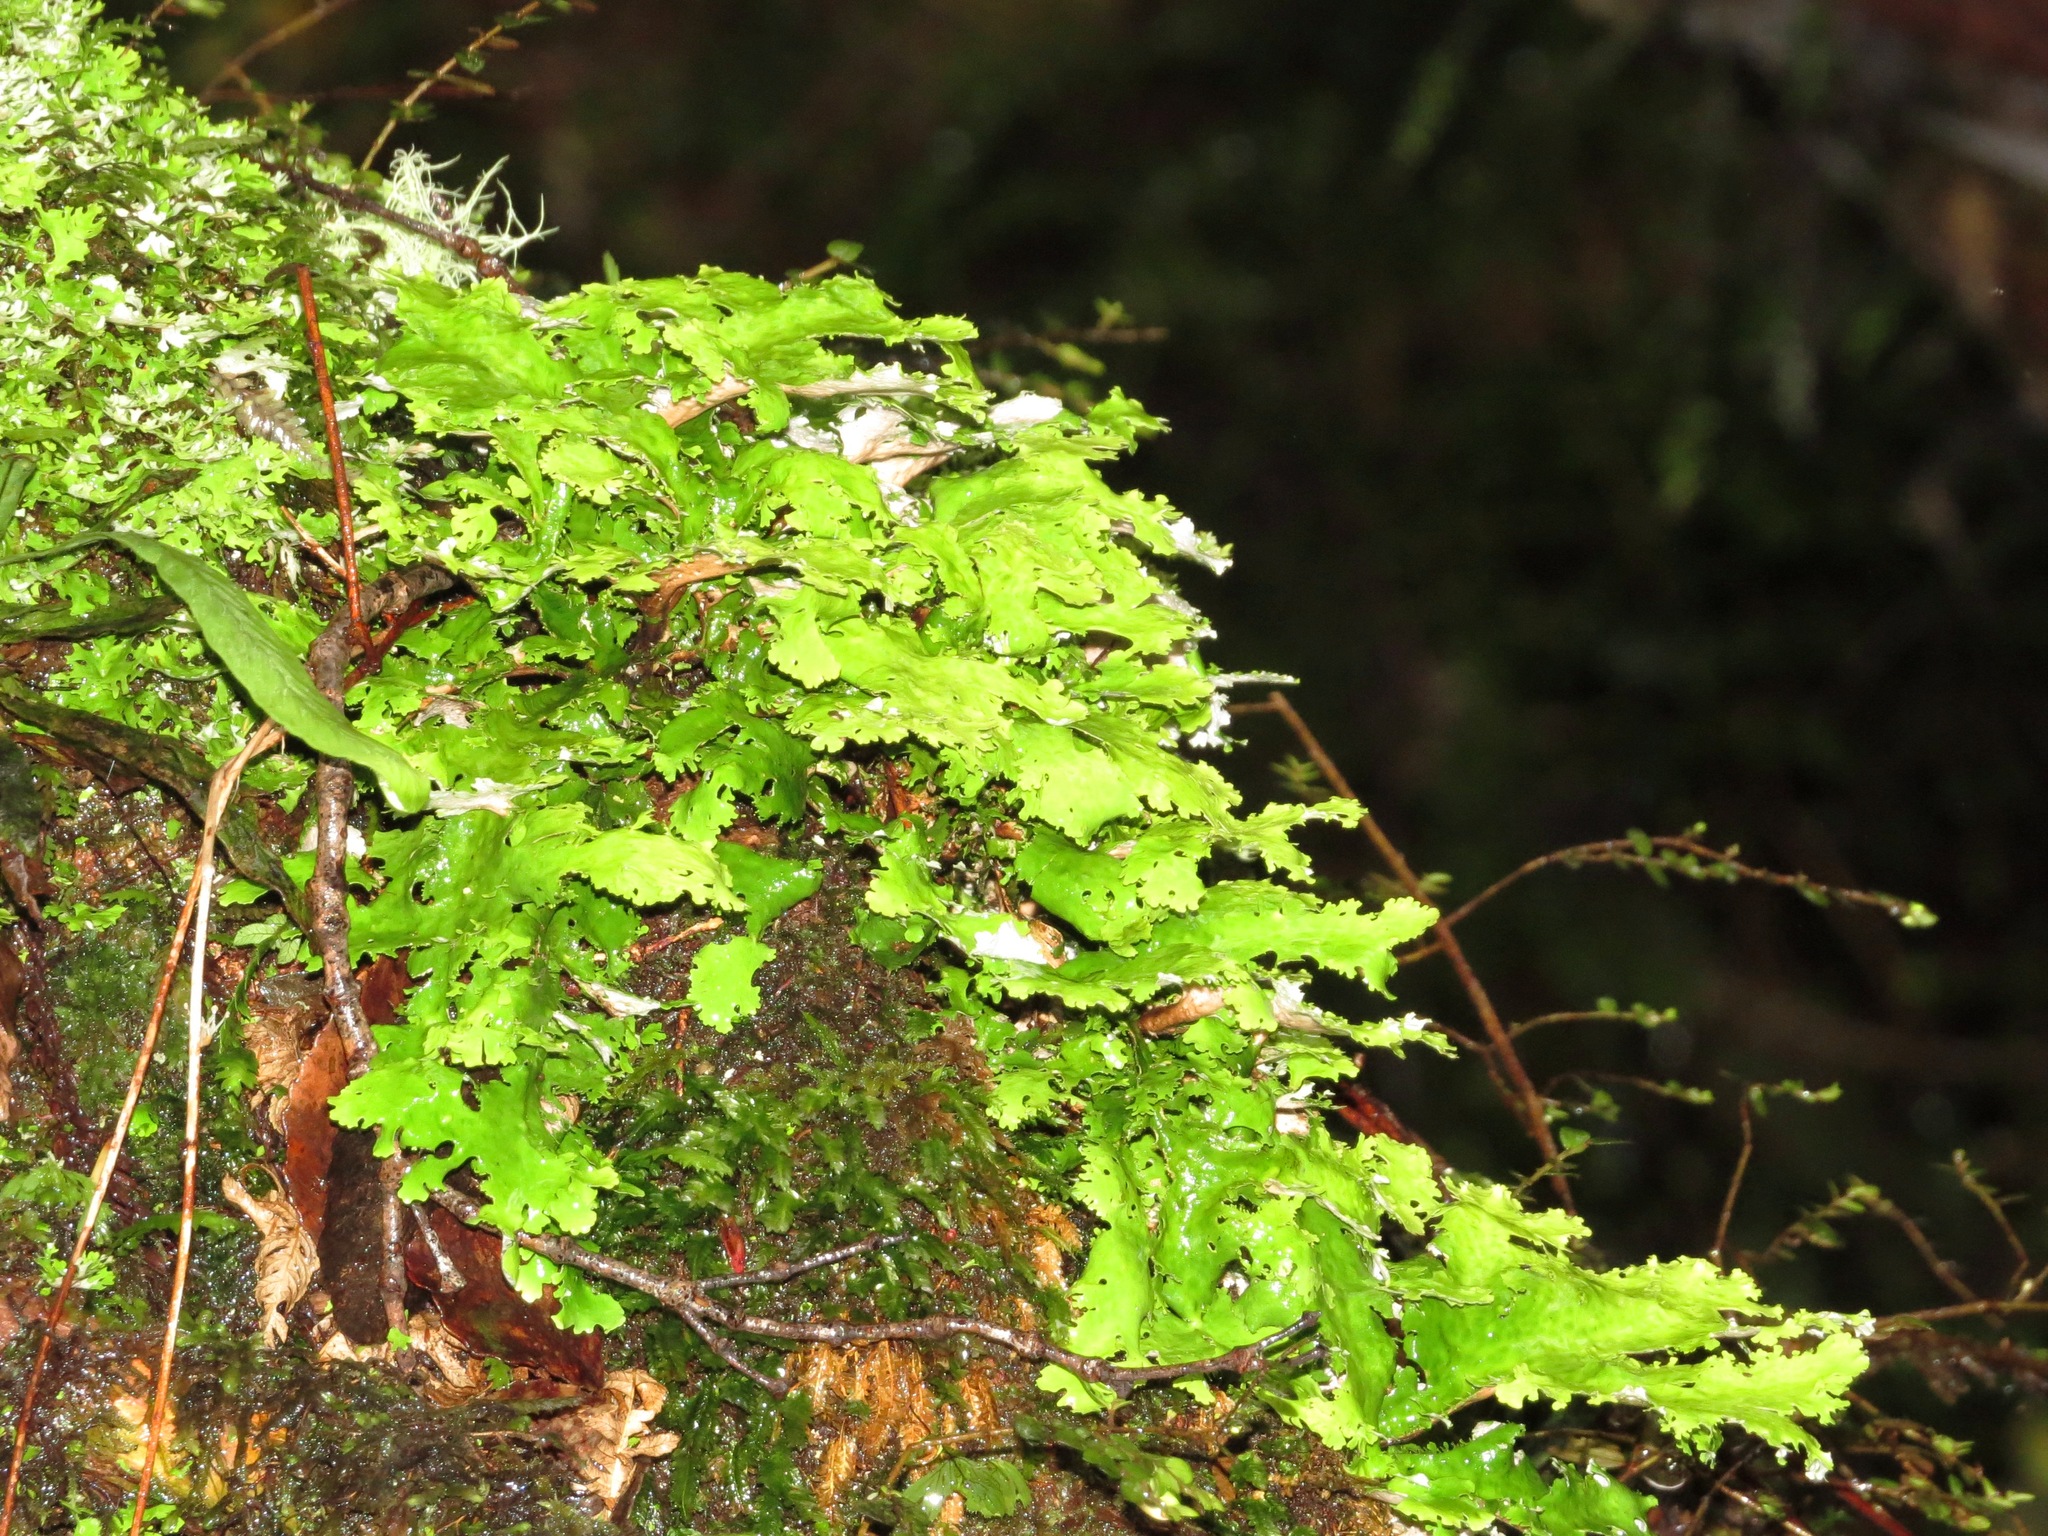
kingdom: Fungi
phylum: Ascomycota
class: Lecanoromycetes
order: Peltigerales
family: Lobariaceae
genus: Sticta
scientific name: Sticta filix
